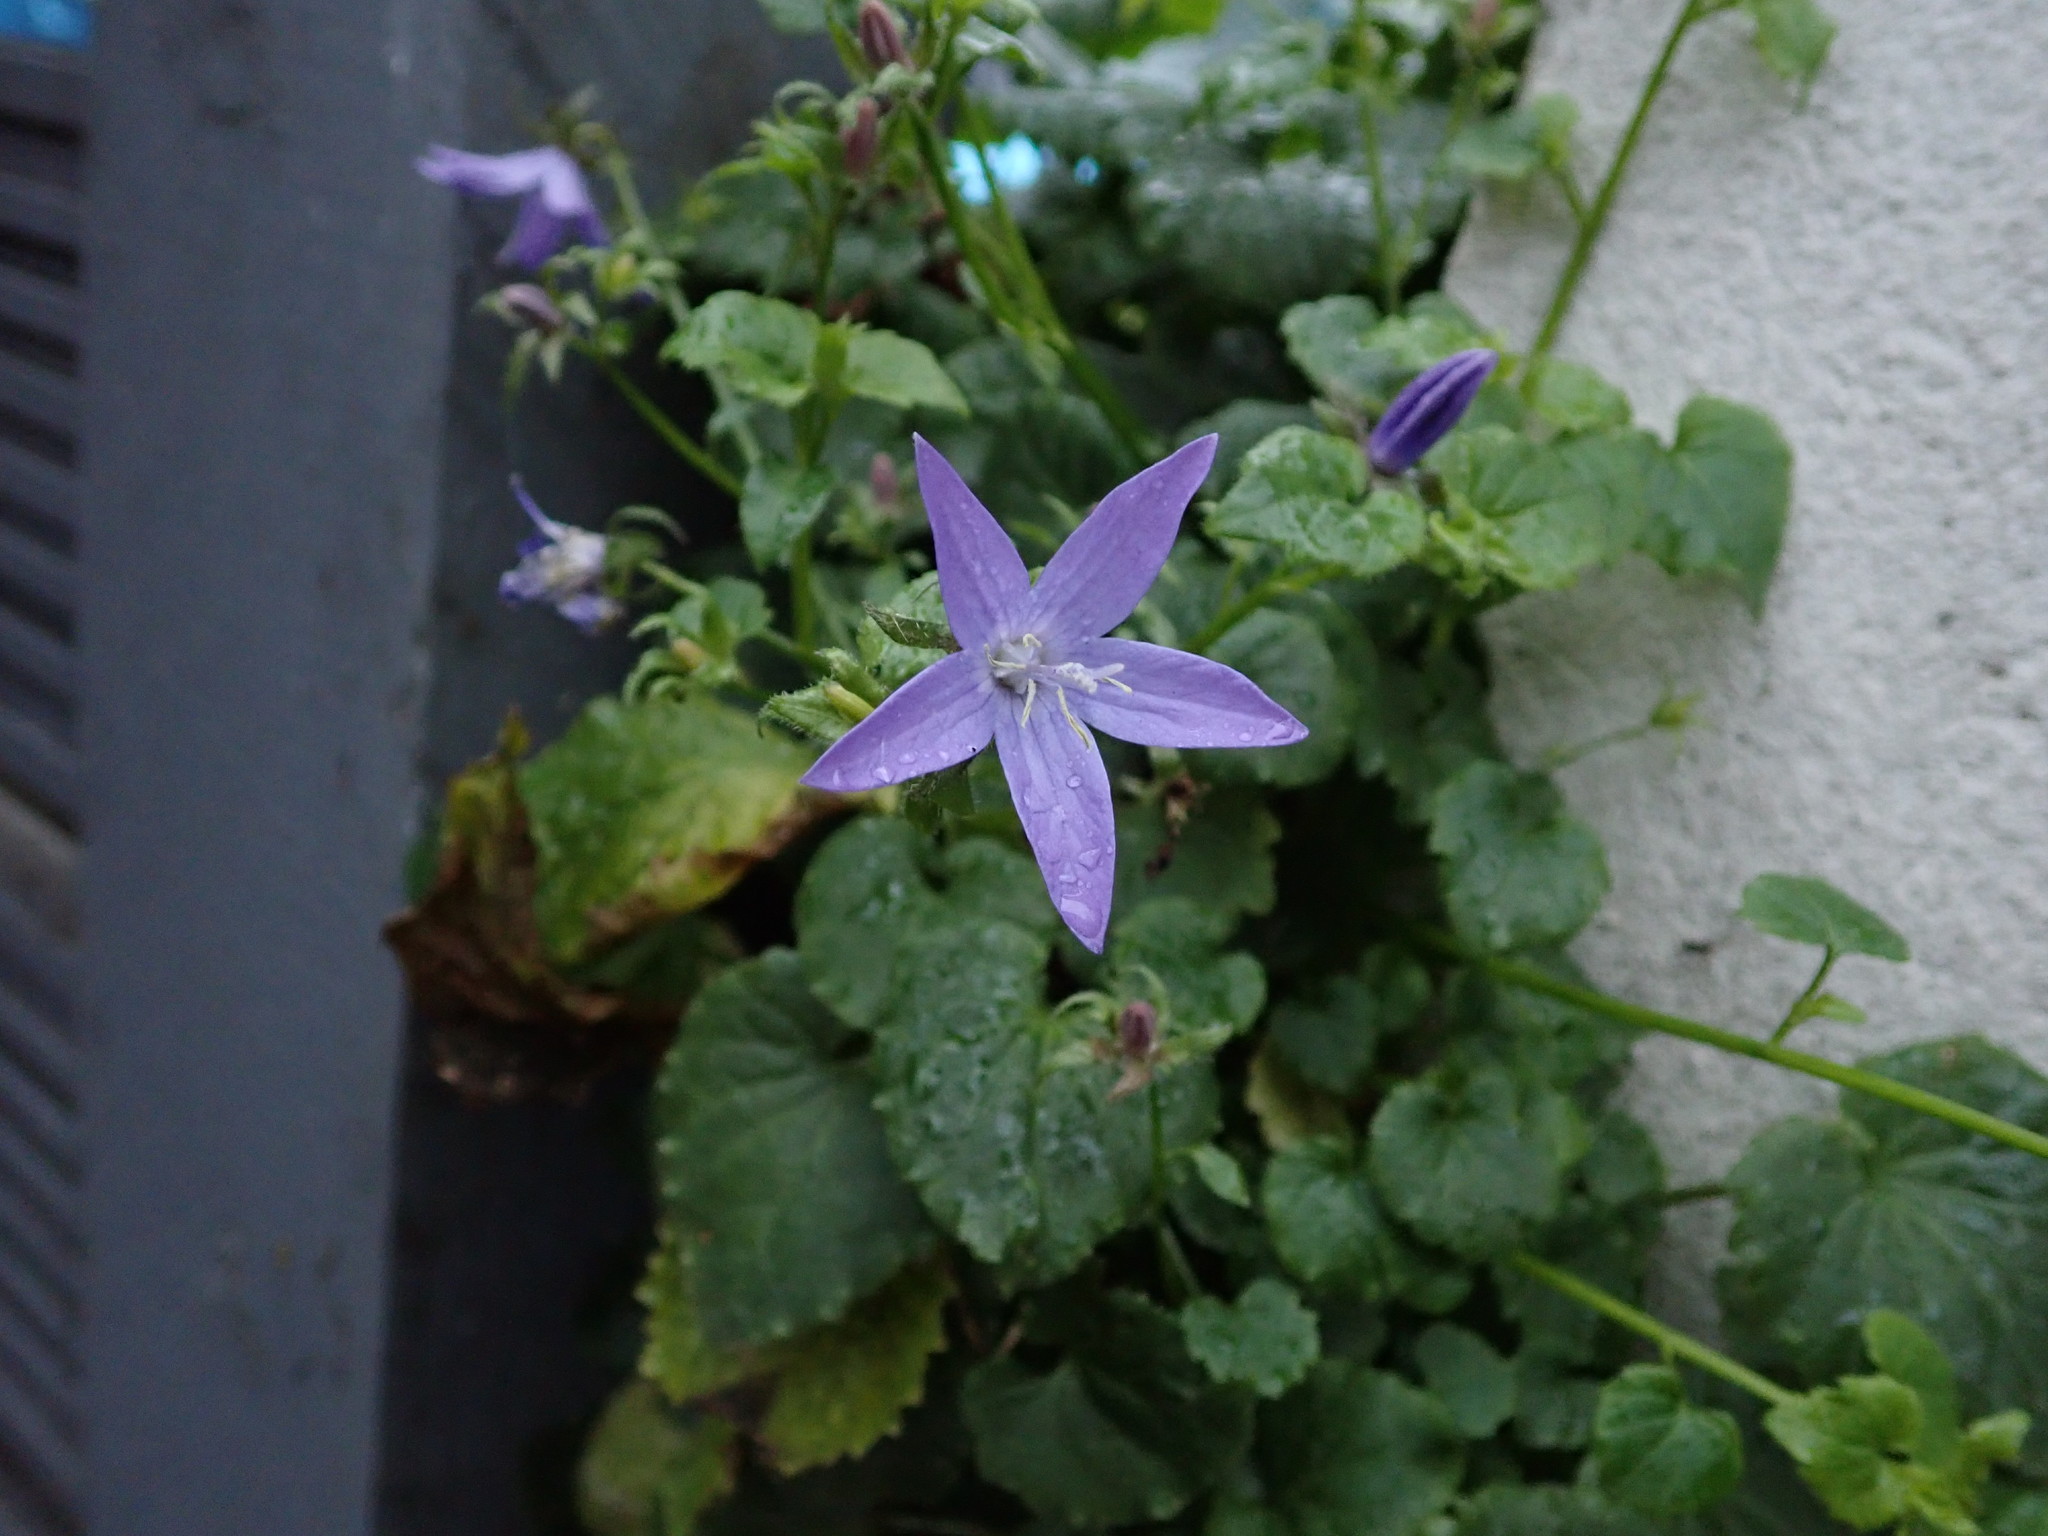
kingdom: Plantae
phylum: Tracheophyta
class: Magnoliopsida
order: Asterales
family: Campanulaceae
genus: Campanula
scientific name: Campanula poscharskyana
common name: Trailing bellflower
